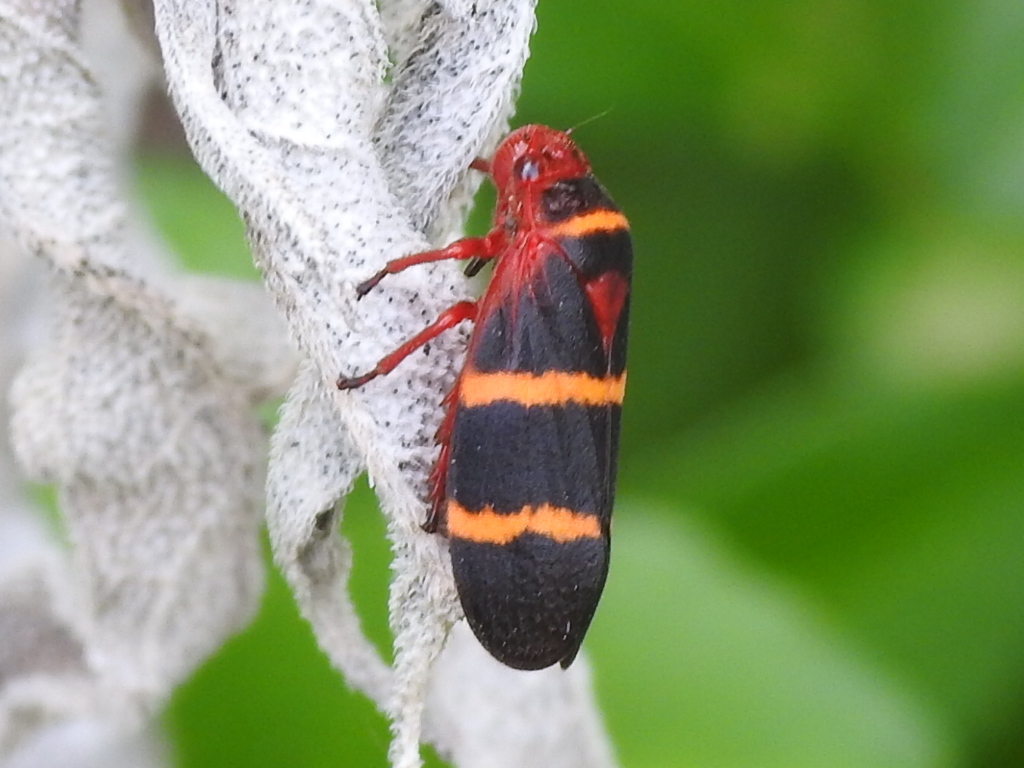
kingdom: Animalia
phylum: Arthropoda
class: Insecta
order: Hemiptera
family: Cercopidae
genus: Prosapia
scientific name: Prosapia bicincta
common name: Twolined spittlebug
